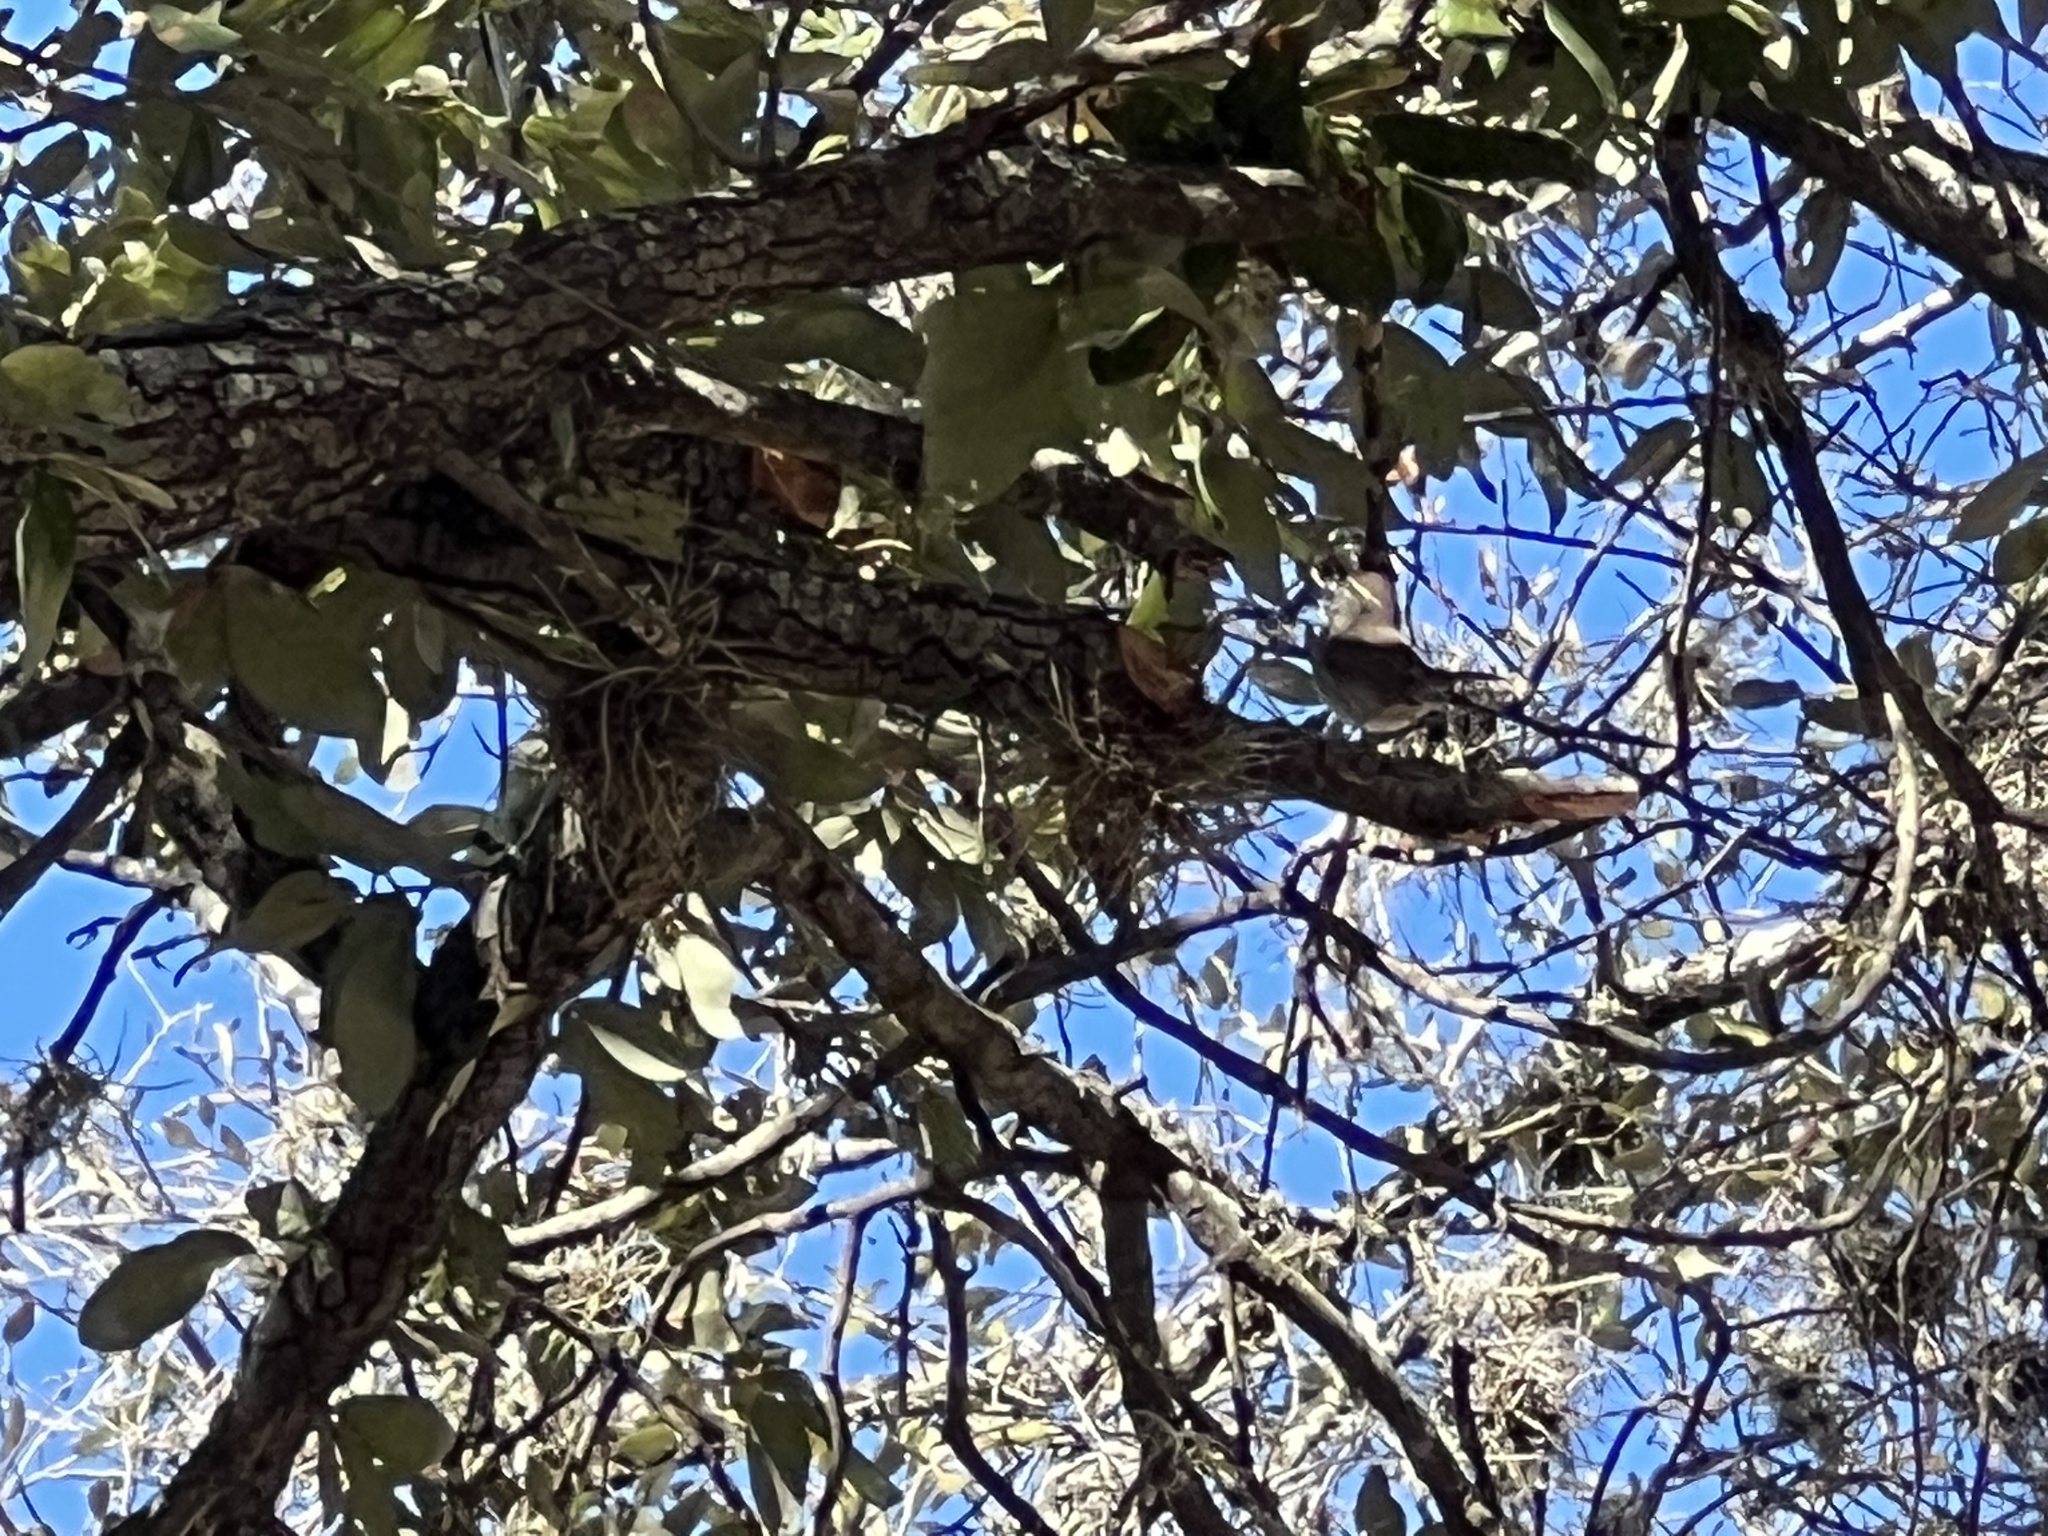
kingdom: Animalia
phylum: Chordata
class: Aves
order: Passeriformes
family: Troglodytidae
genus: Thryomanes
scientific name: Thryomanes bewickii
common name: Bewick's wren
